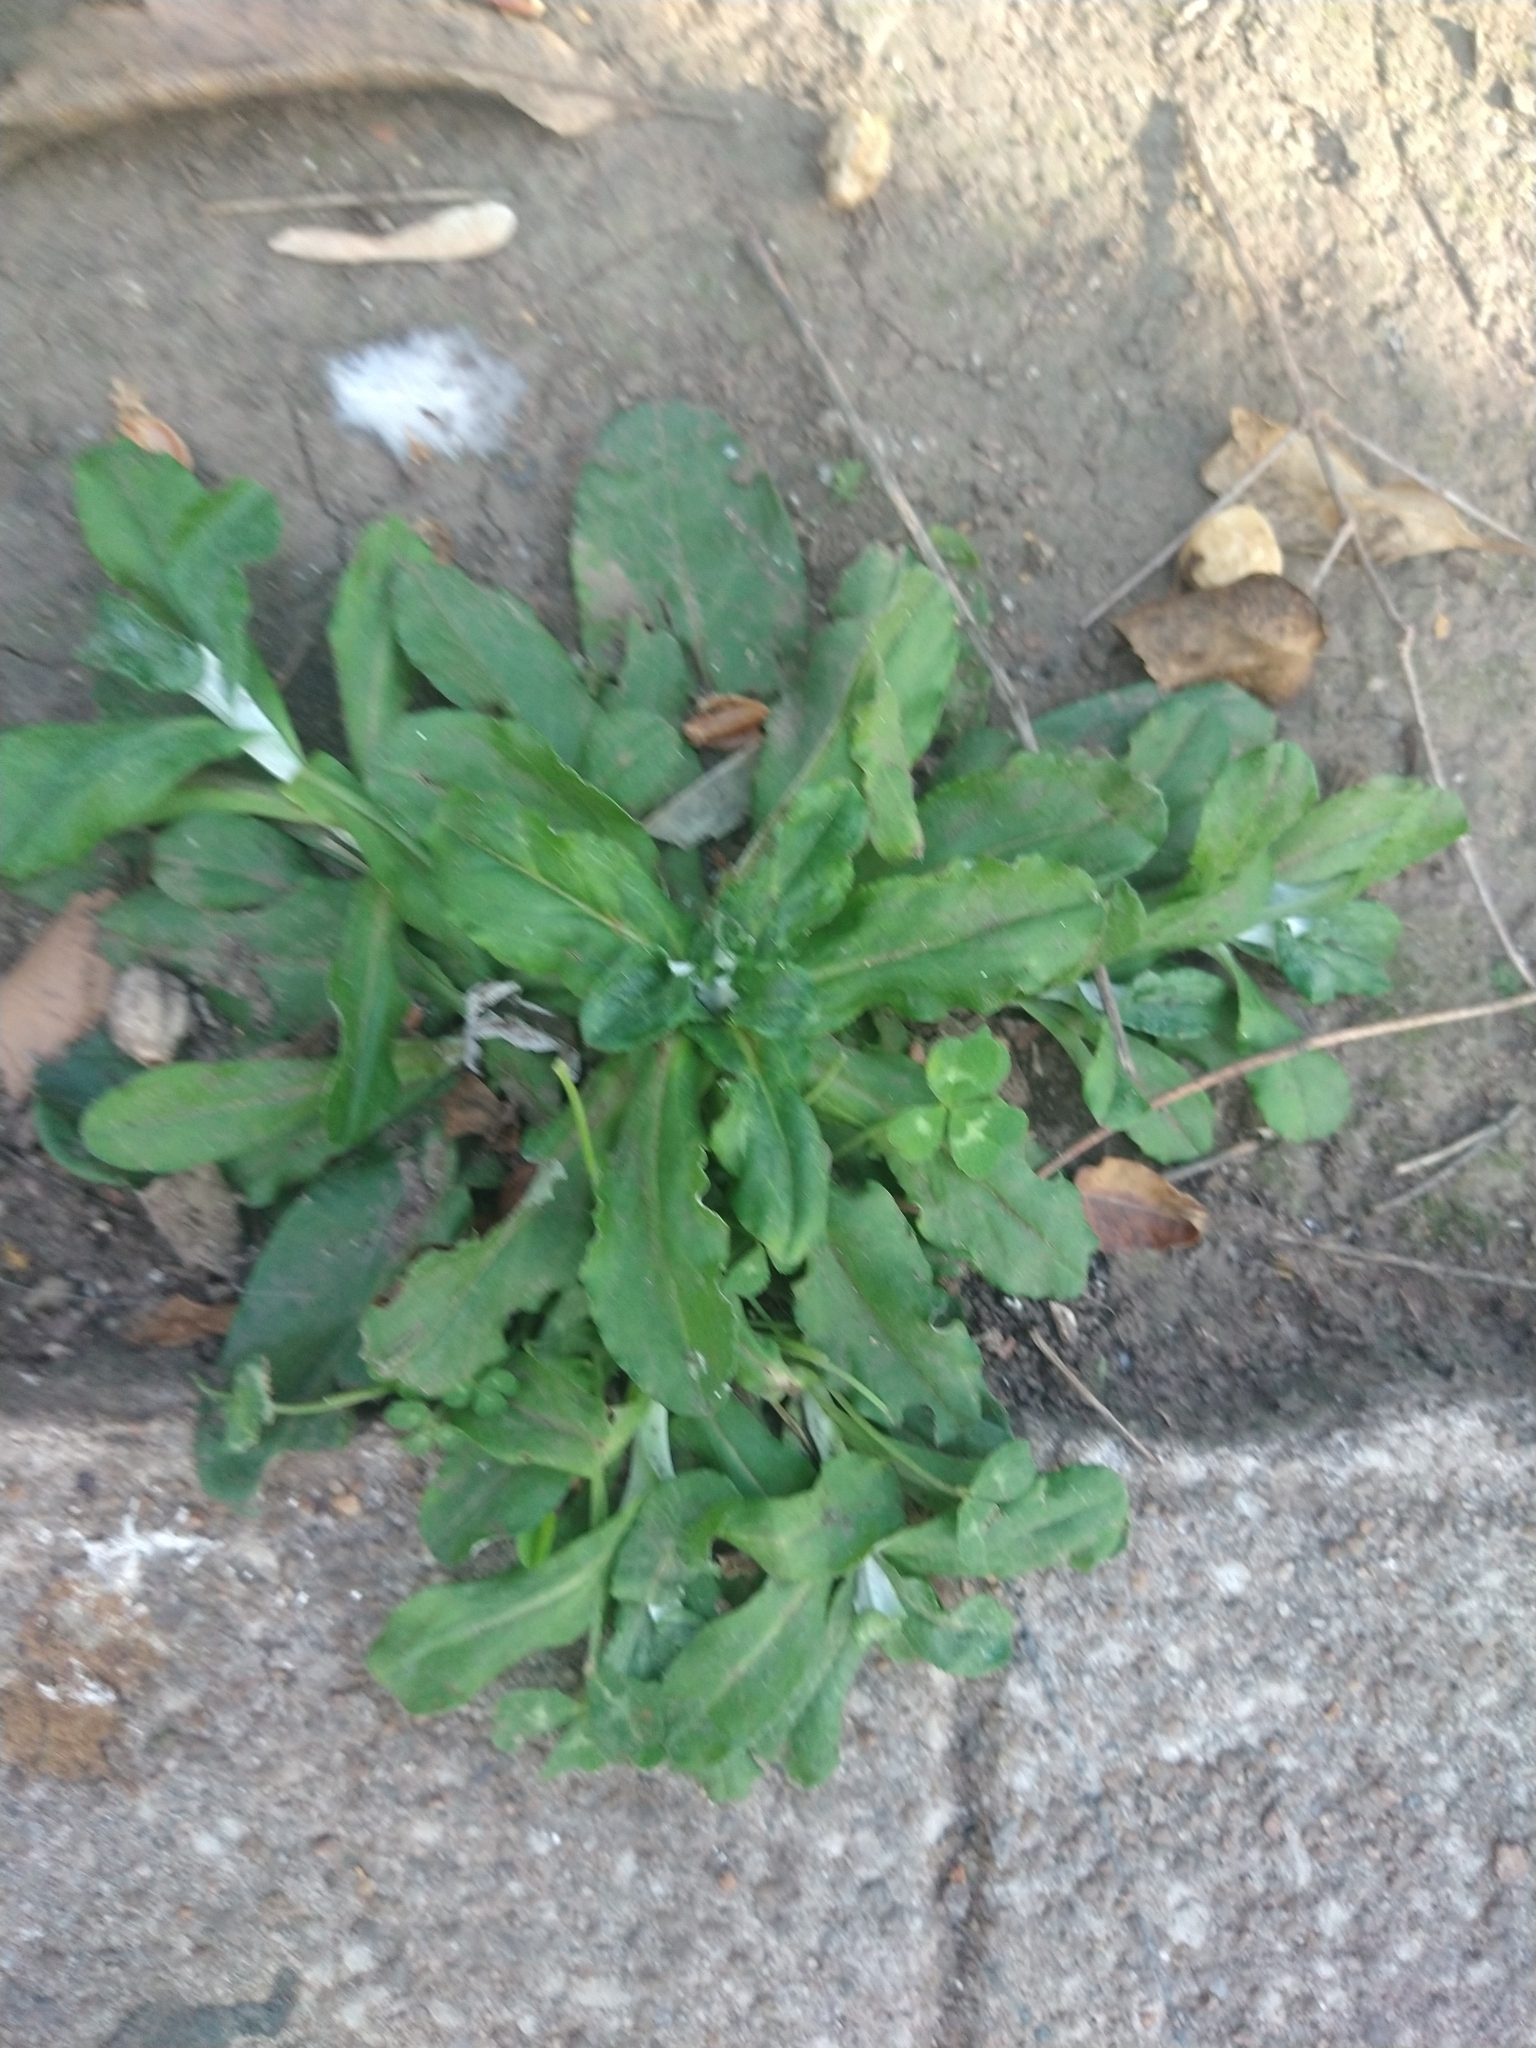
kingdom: Plantae
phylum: Tracheophyta
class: Magnoliopsida
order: Asterales
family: Asteraceae
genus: Hypochaeris
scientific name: Hypochaeris radicata
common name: Flatweed
